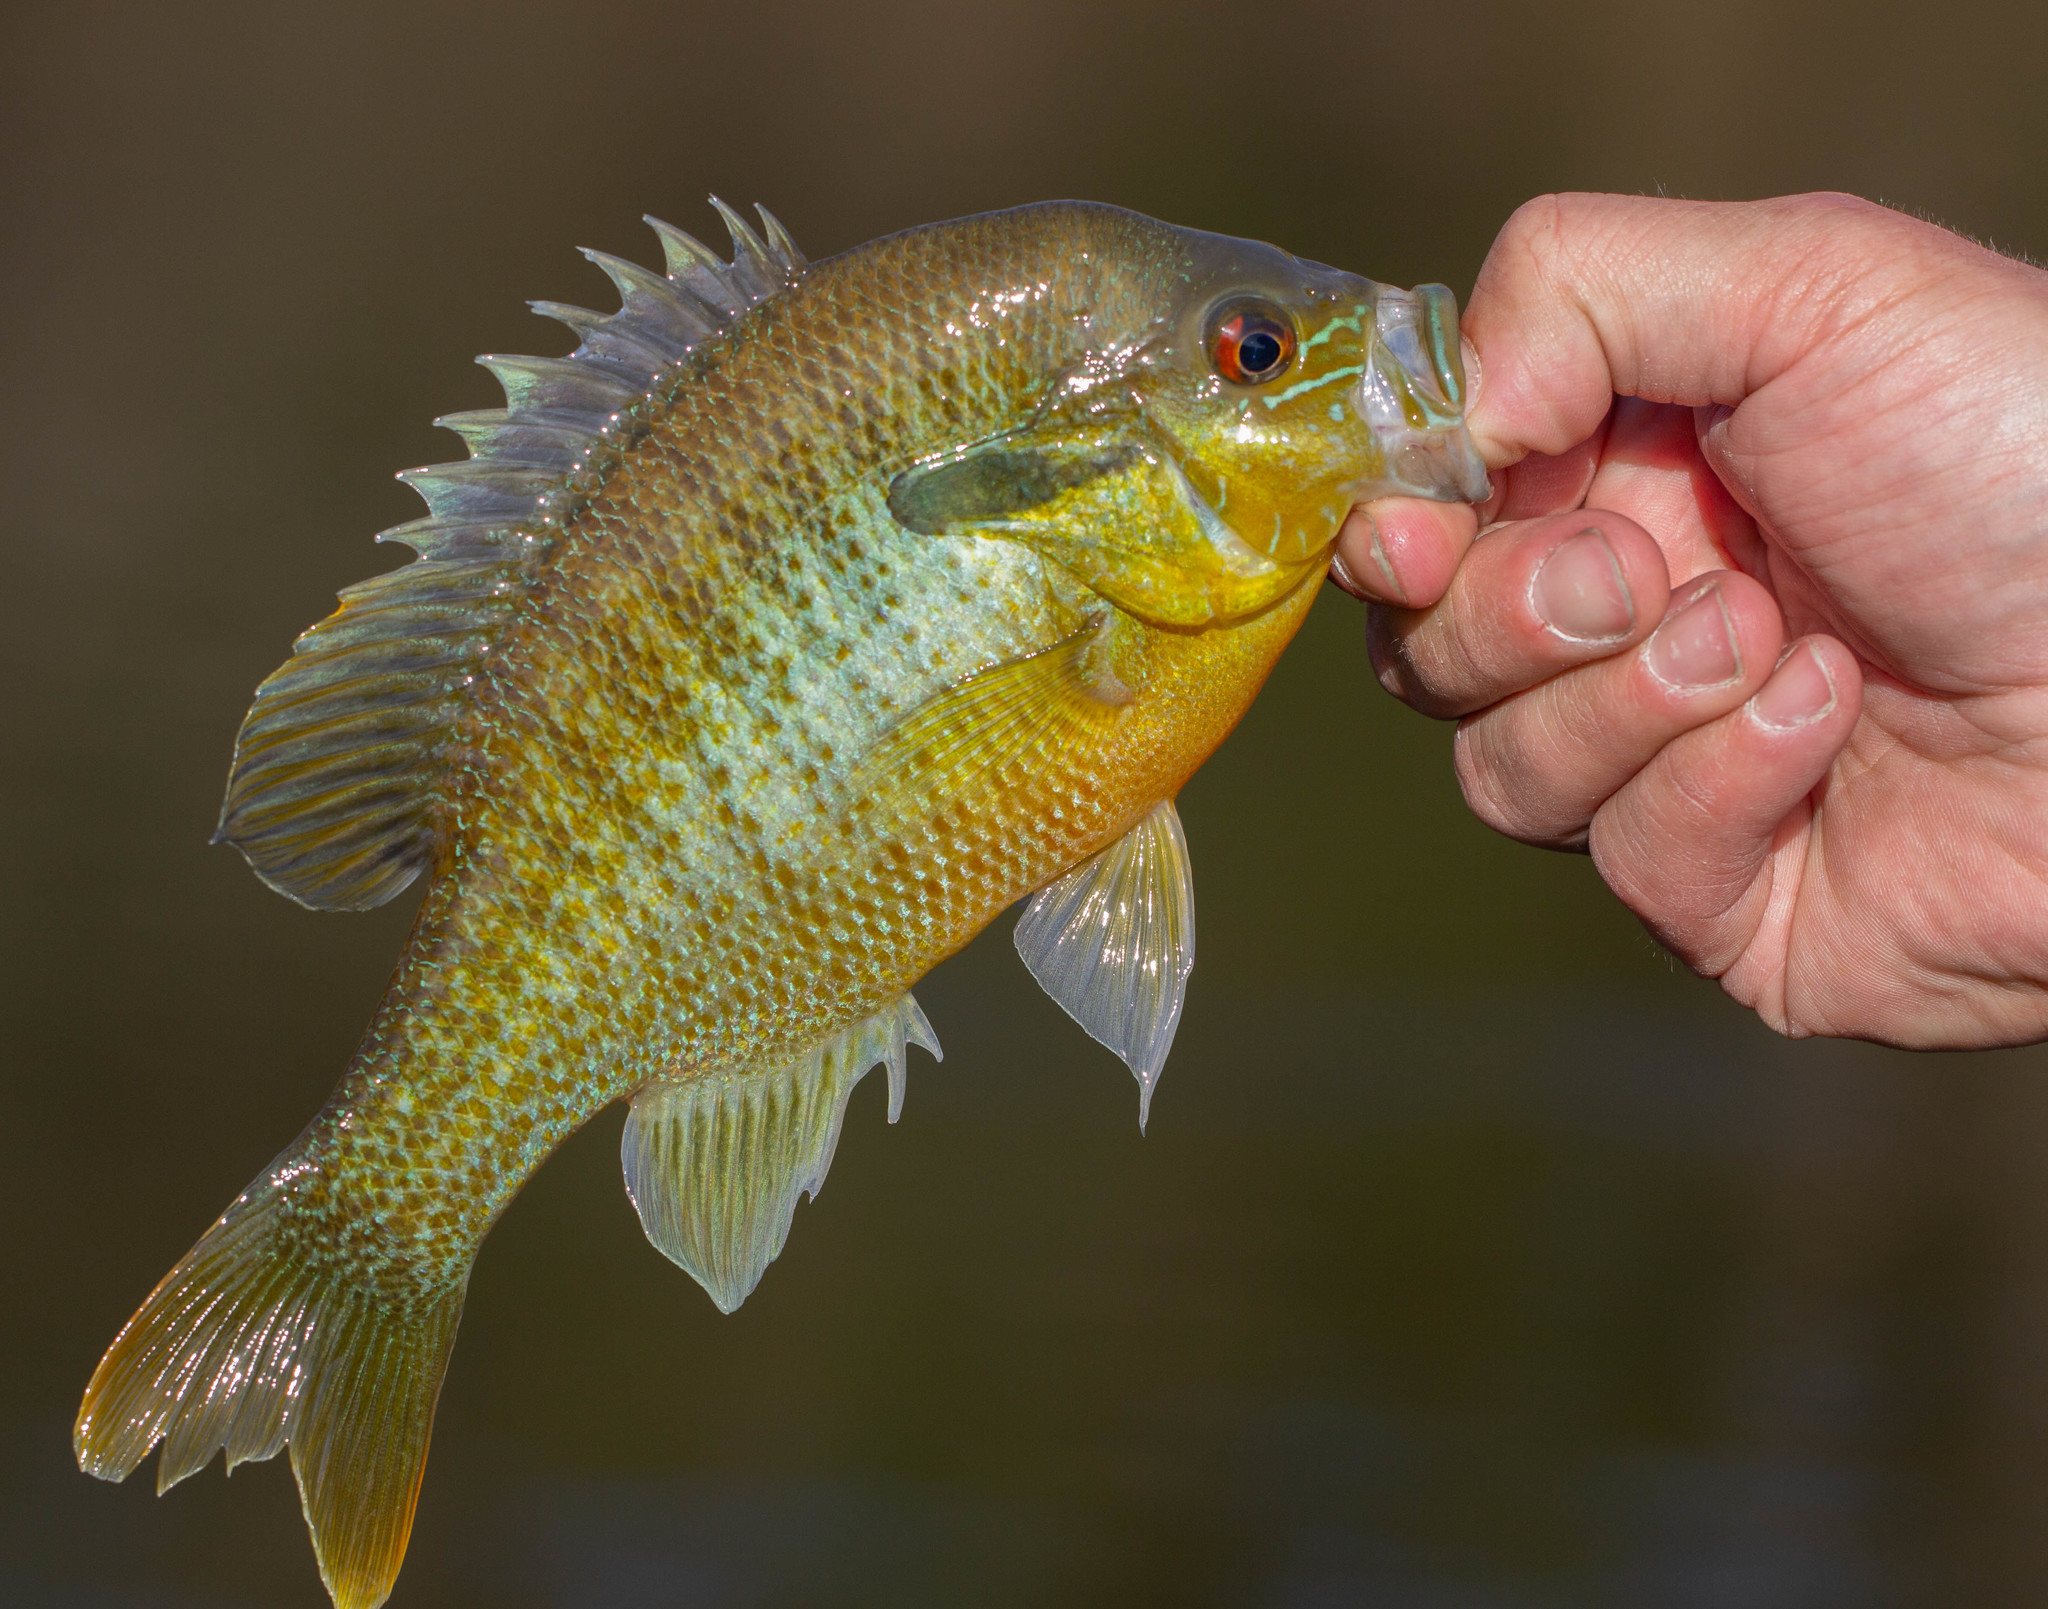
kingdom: Animalia
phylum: Chordata
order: Perciformes
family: Centrarchidae
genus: Lepomis
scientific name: Lepomis auritus
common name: Redbreast sunfish
